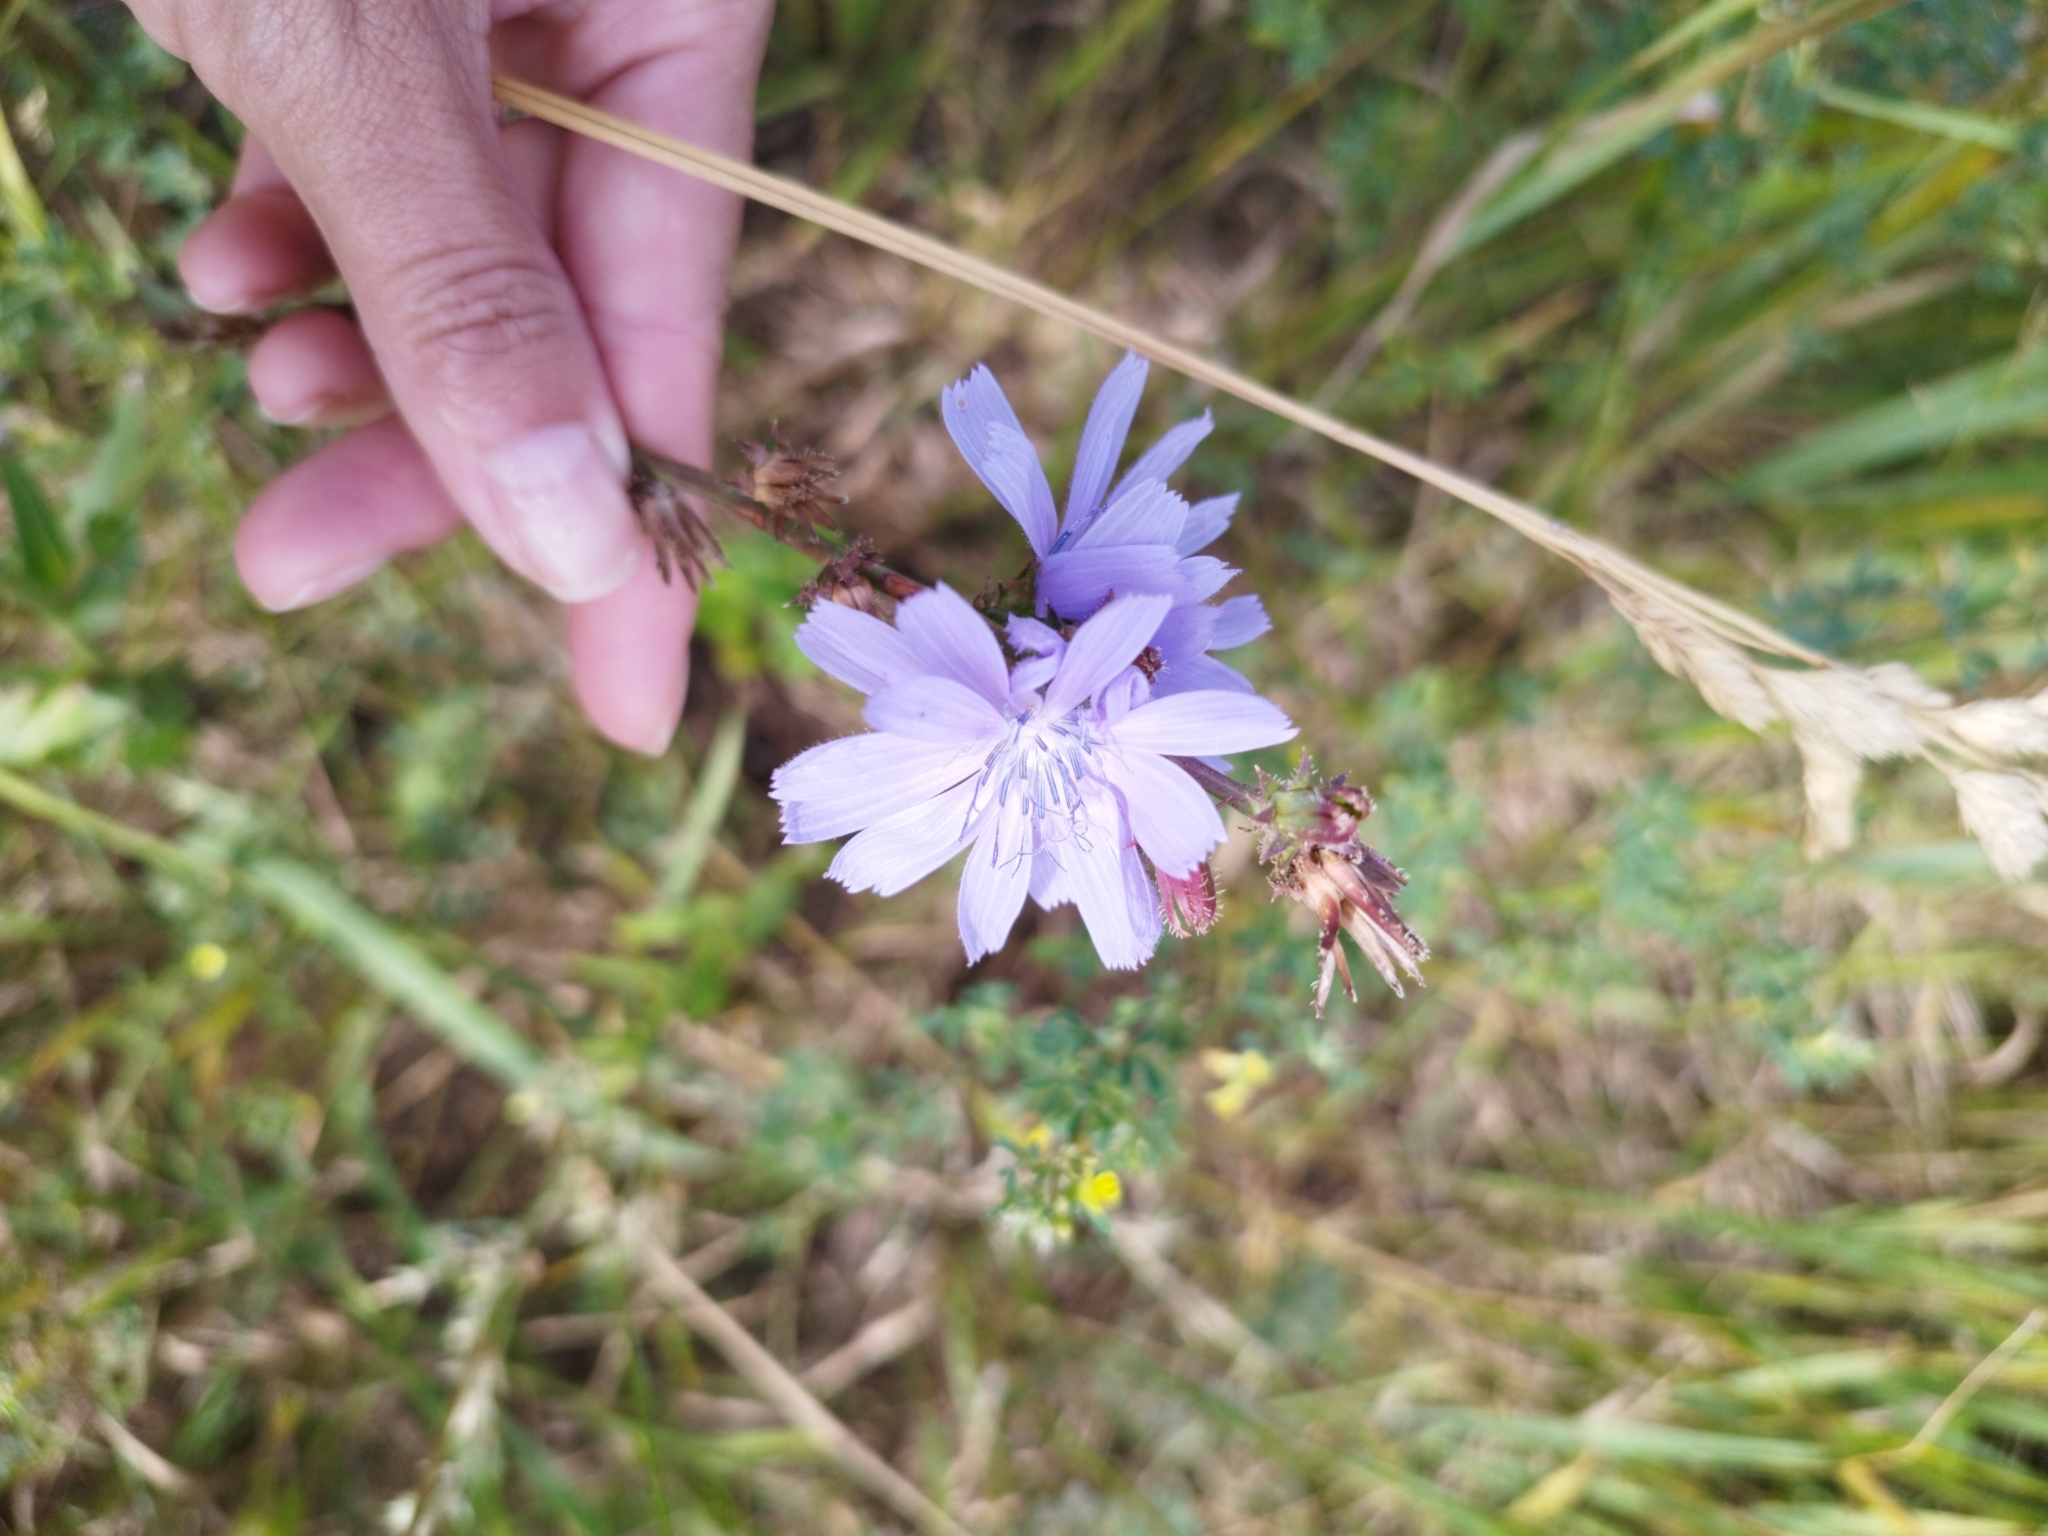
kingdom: Plantae
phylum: Tracheophyta
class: Magnoliopsida
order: Asterales
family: Asteraceae
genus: Cichorium
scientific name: Cichorium intybus
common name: Chicory
